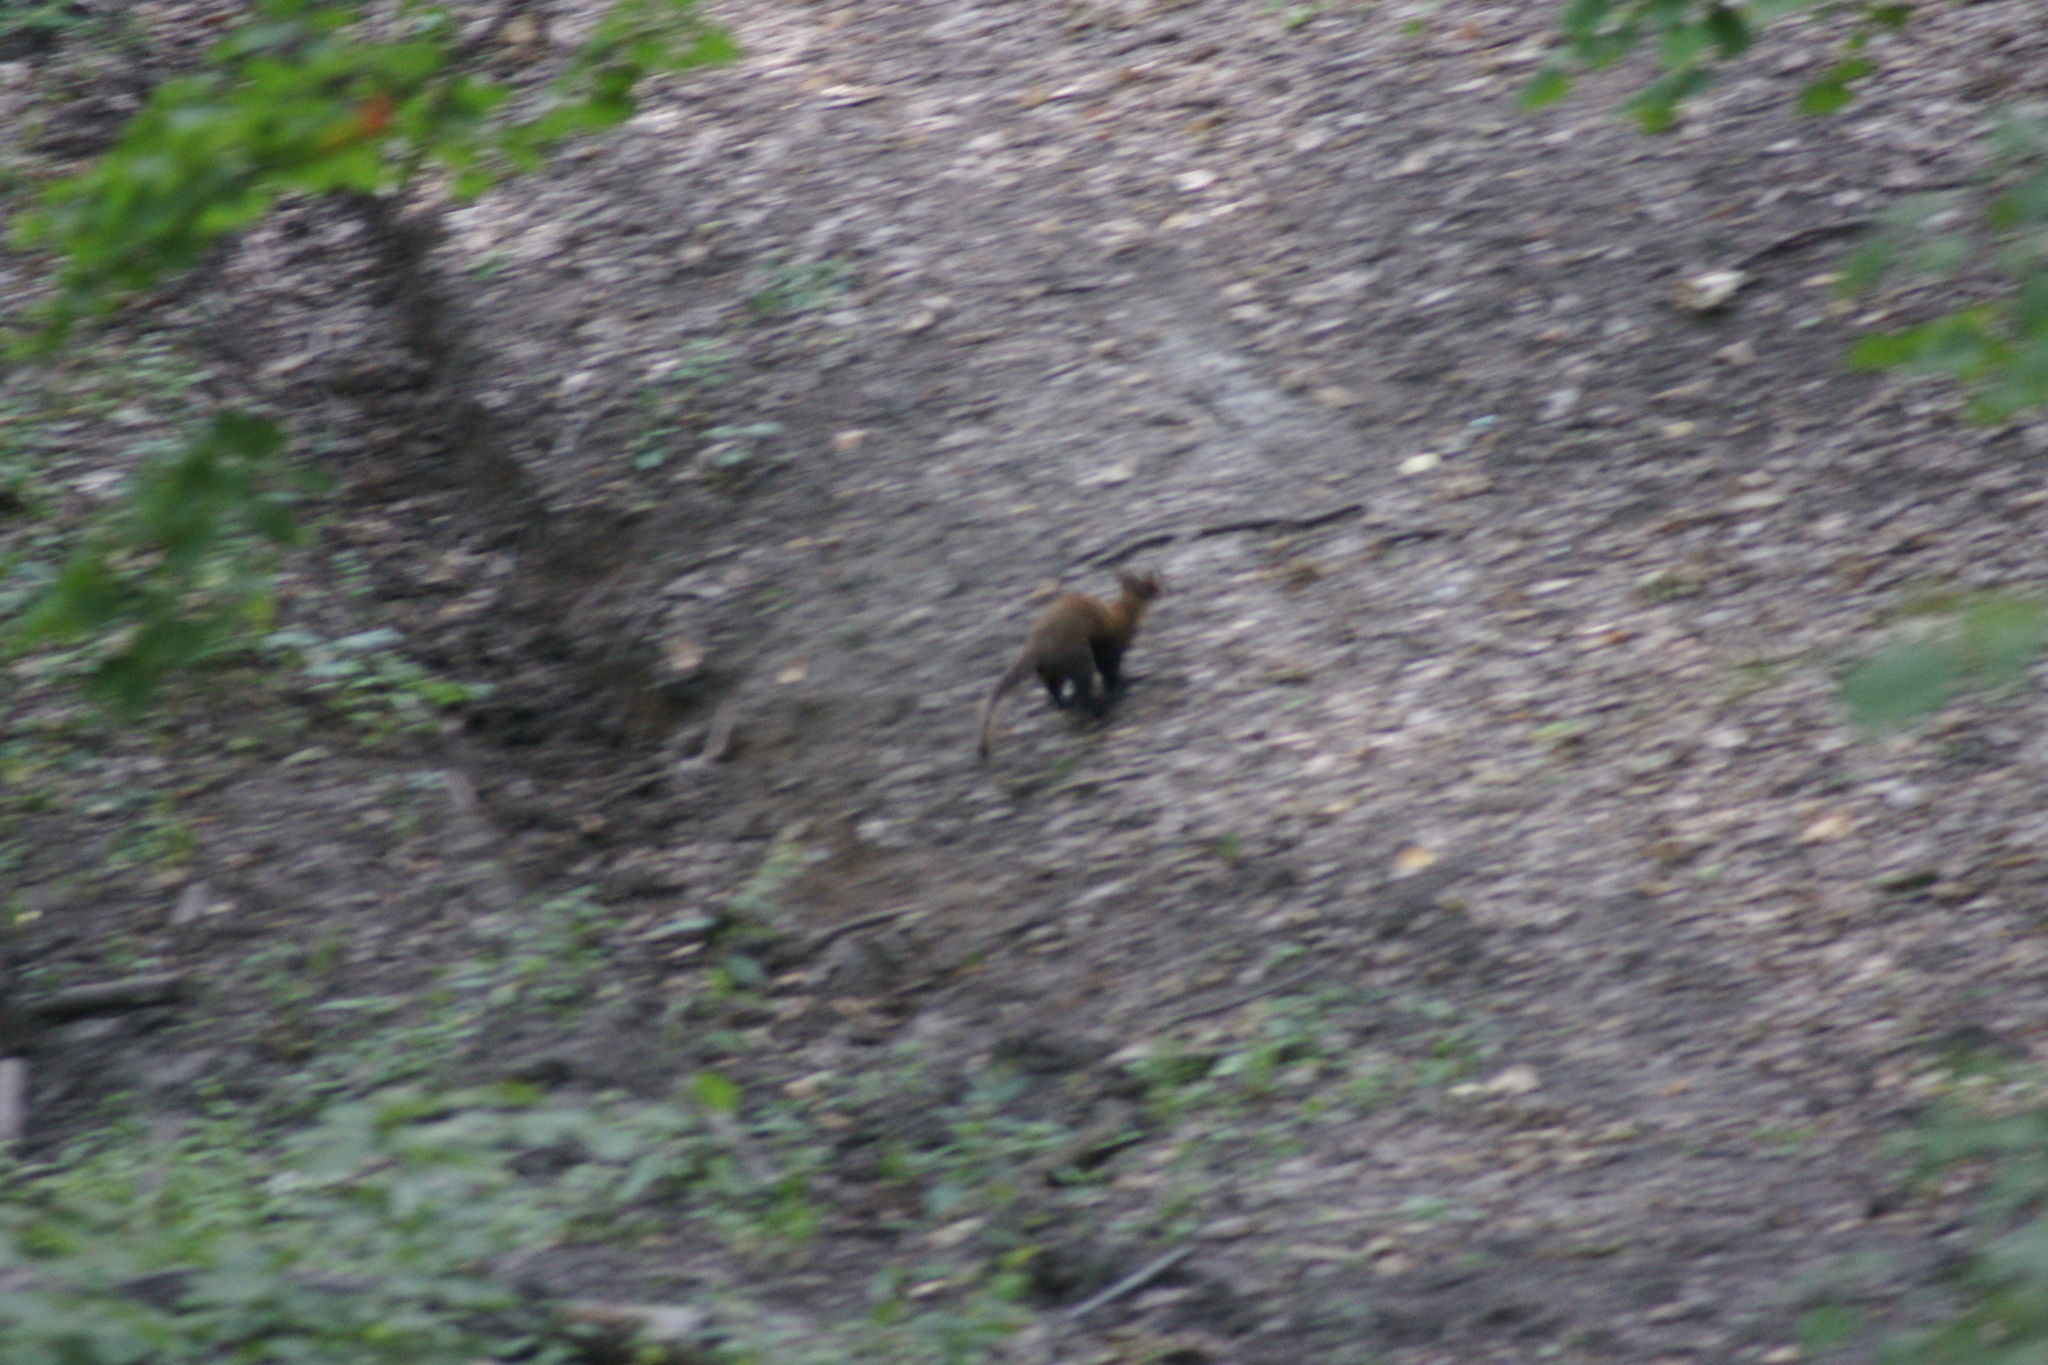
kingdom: Animalia
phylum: Chordata
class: Mammalia
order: Carnivora
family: Mustelidae
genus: Martes
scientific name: Martes martes
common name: European pine marten
